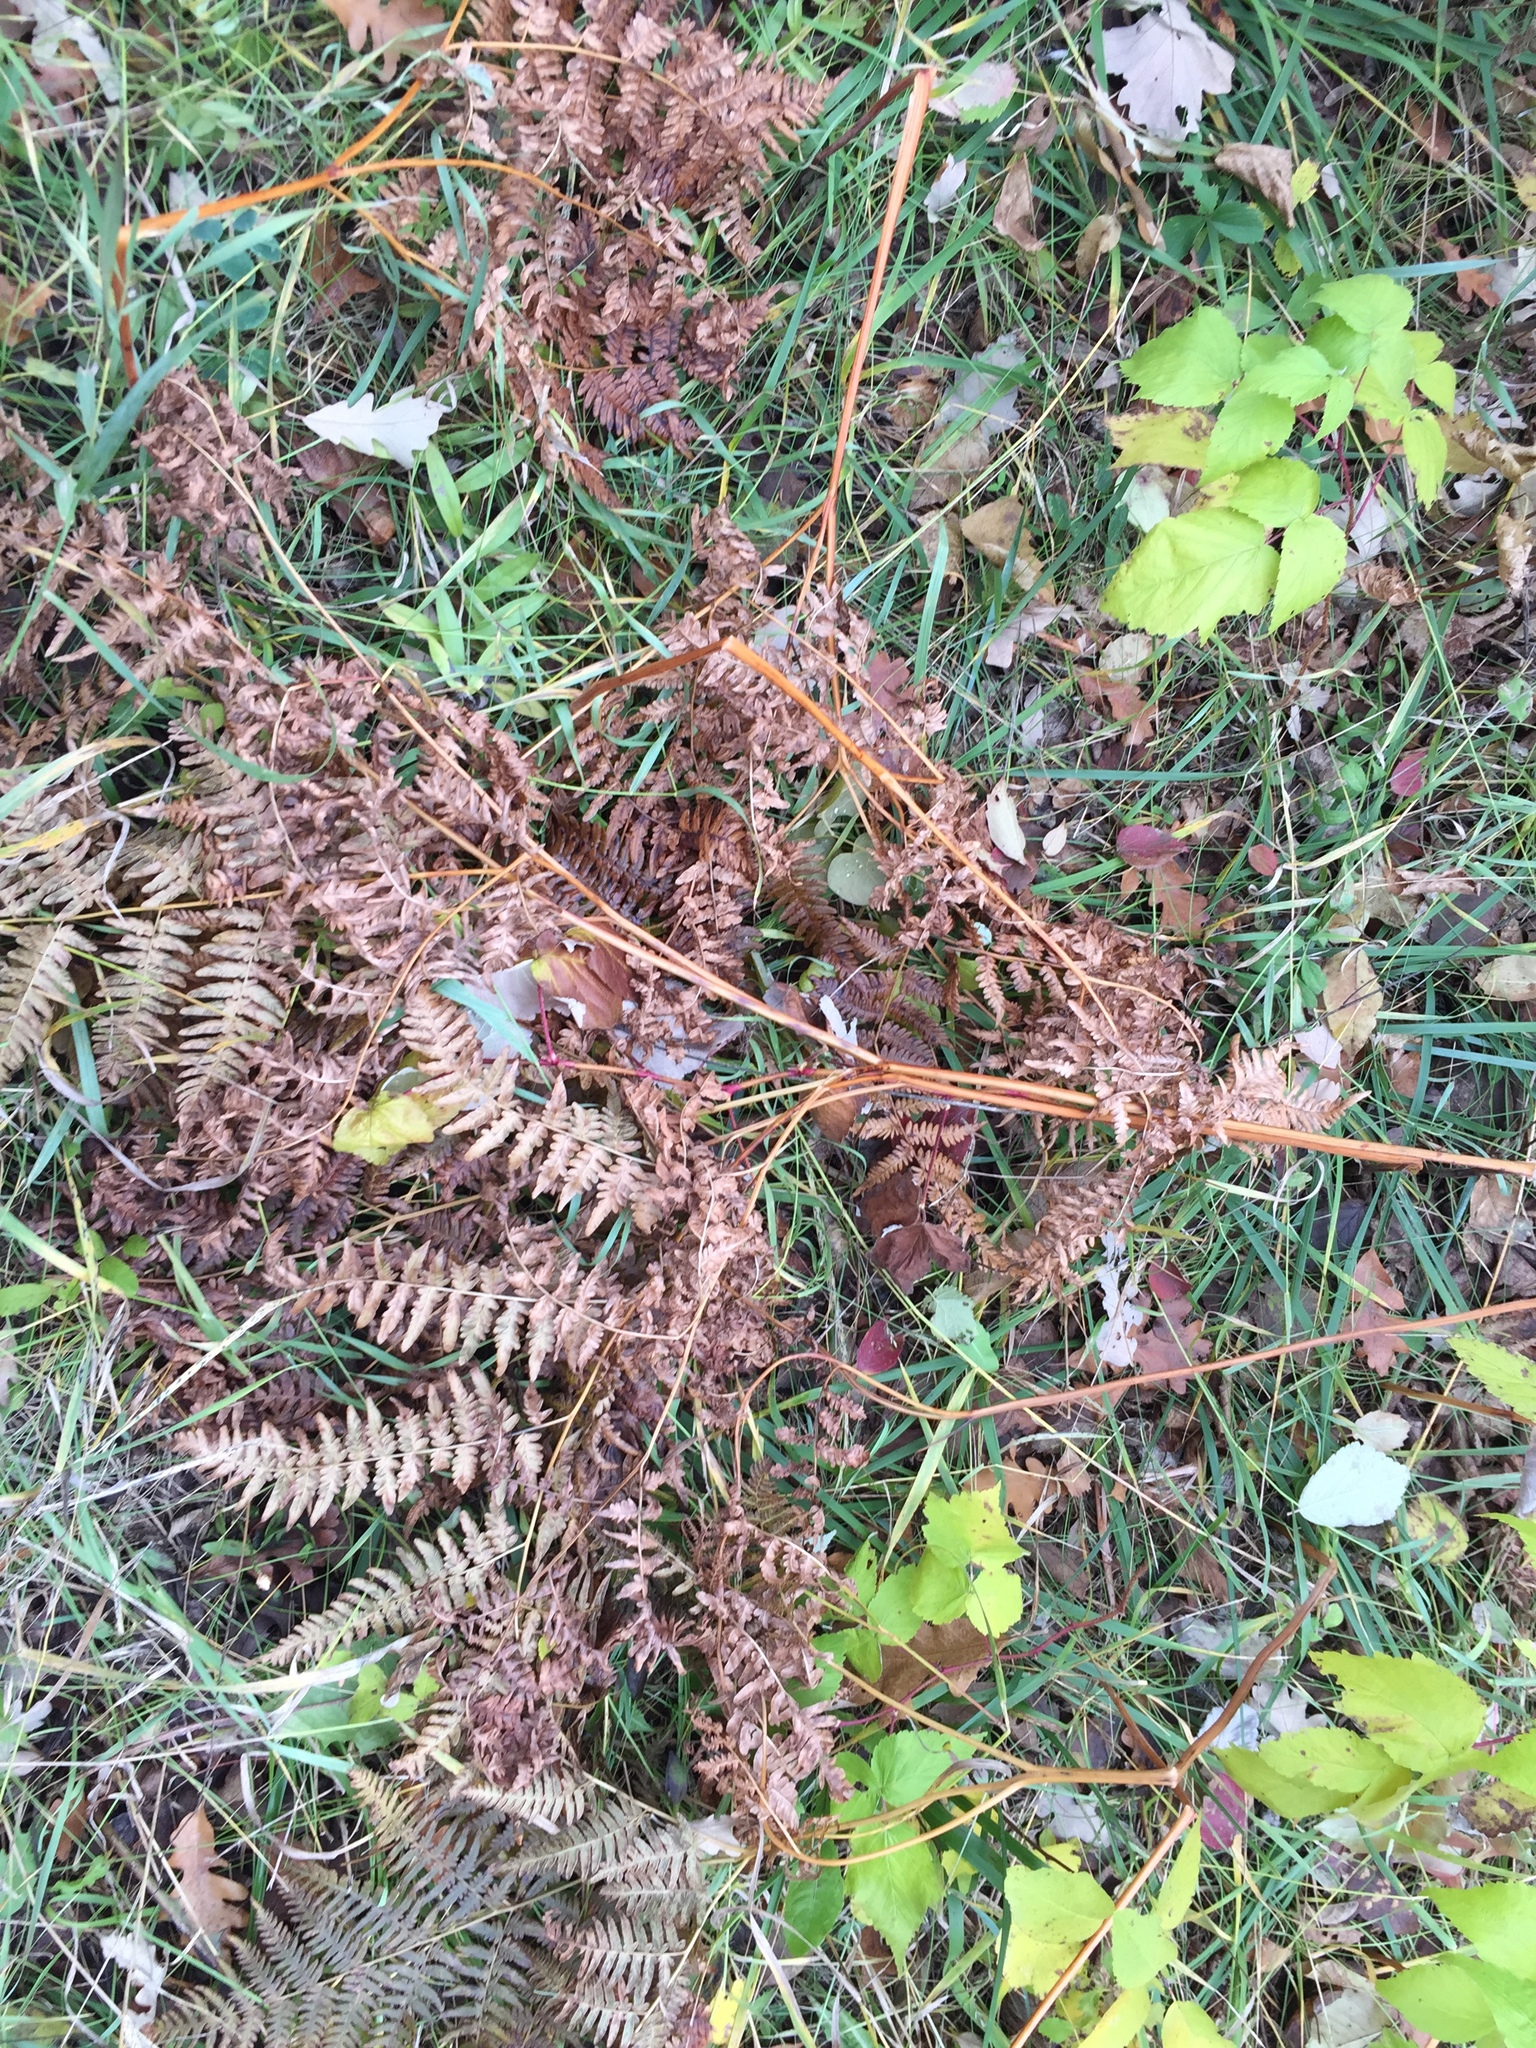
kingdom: Plantae
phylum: Tracheophyta
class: Polypodiopsida
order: Polypodiales
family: Dennstaedtiaceae
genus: Pteridium
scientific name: Pteridium aquilinum
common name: Bracken
